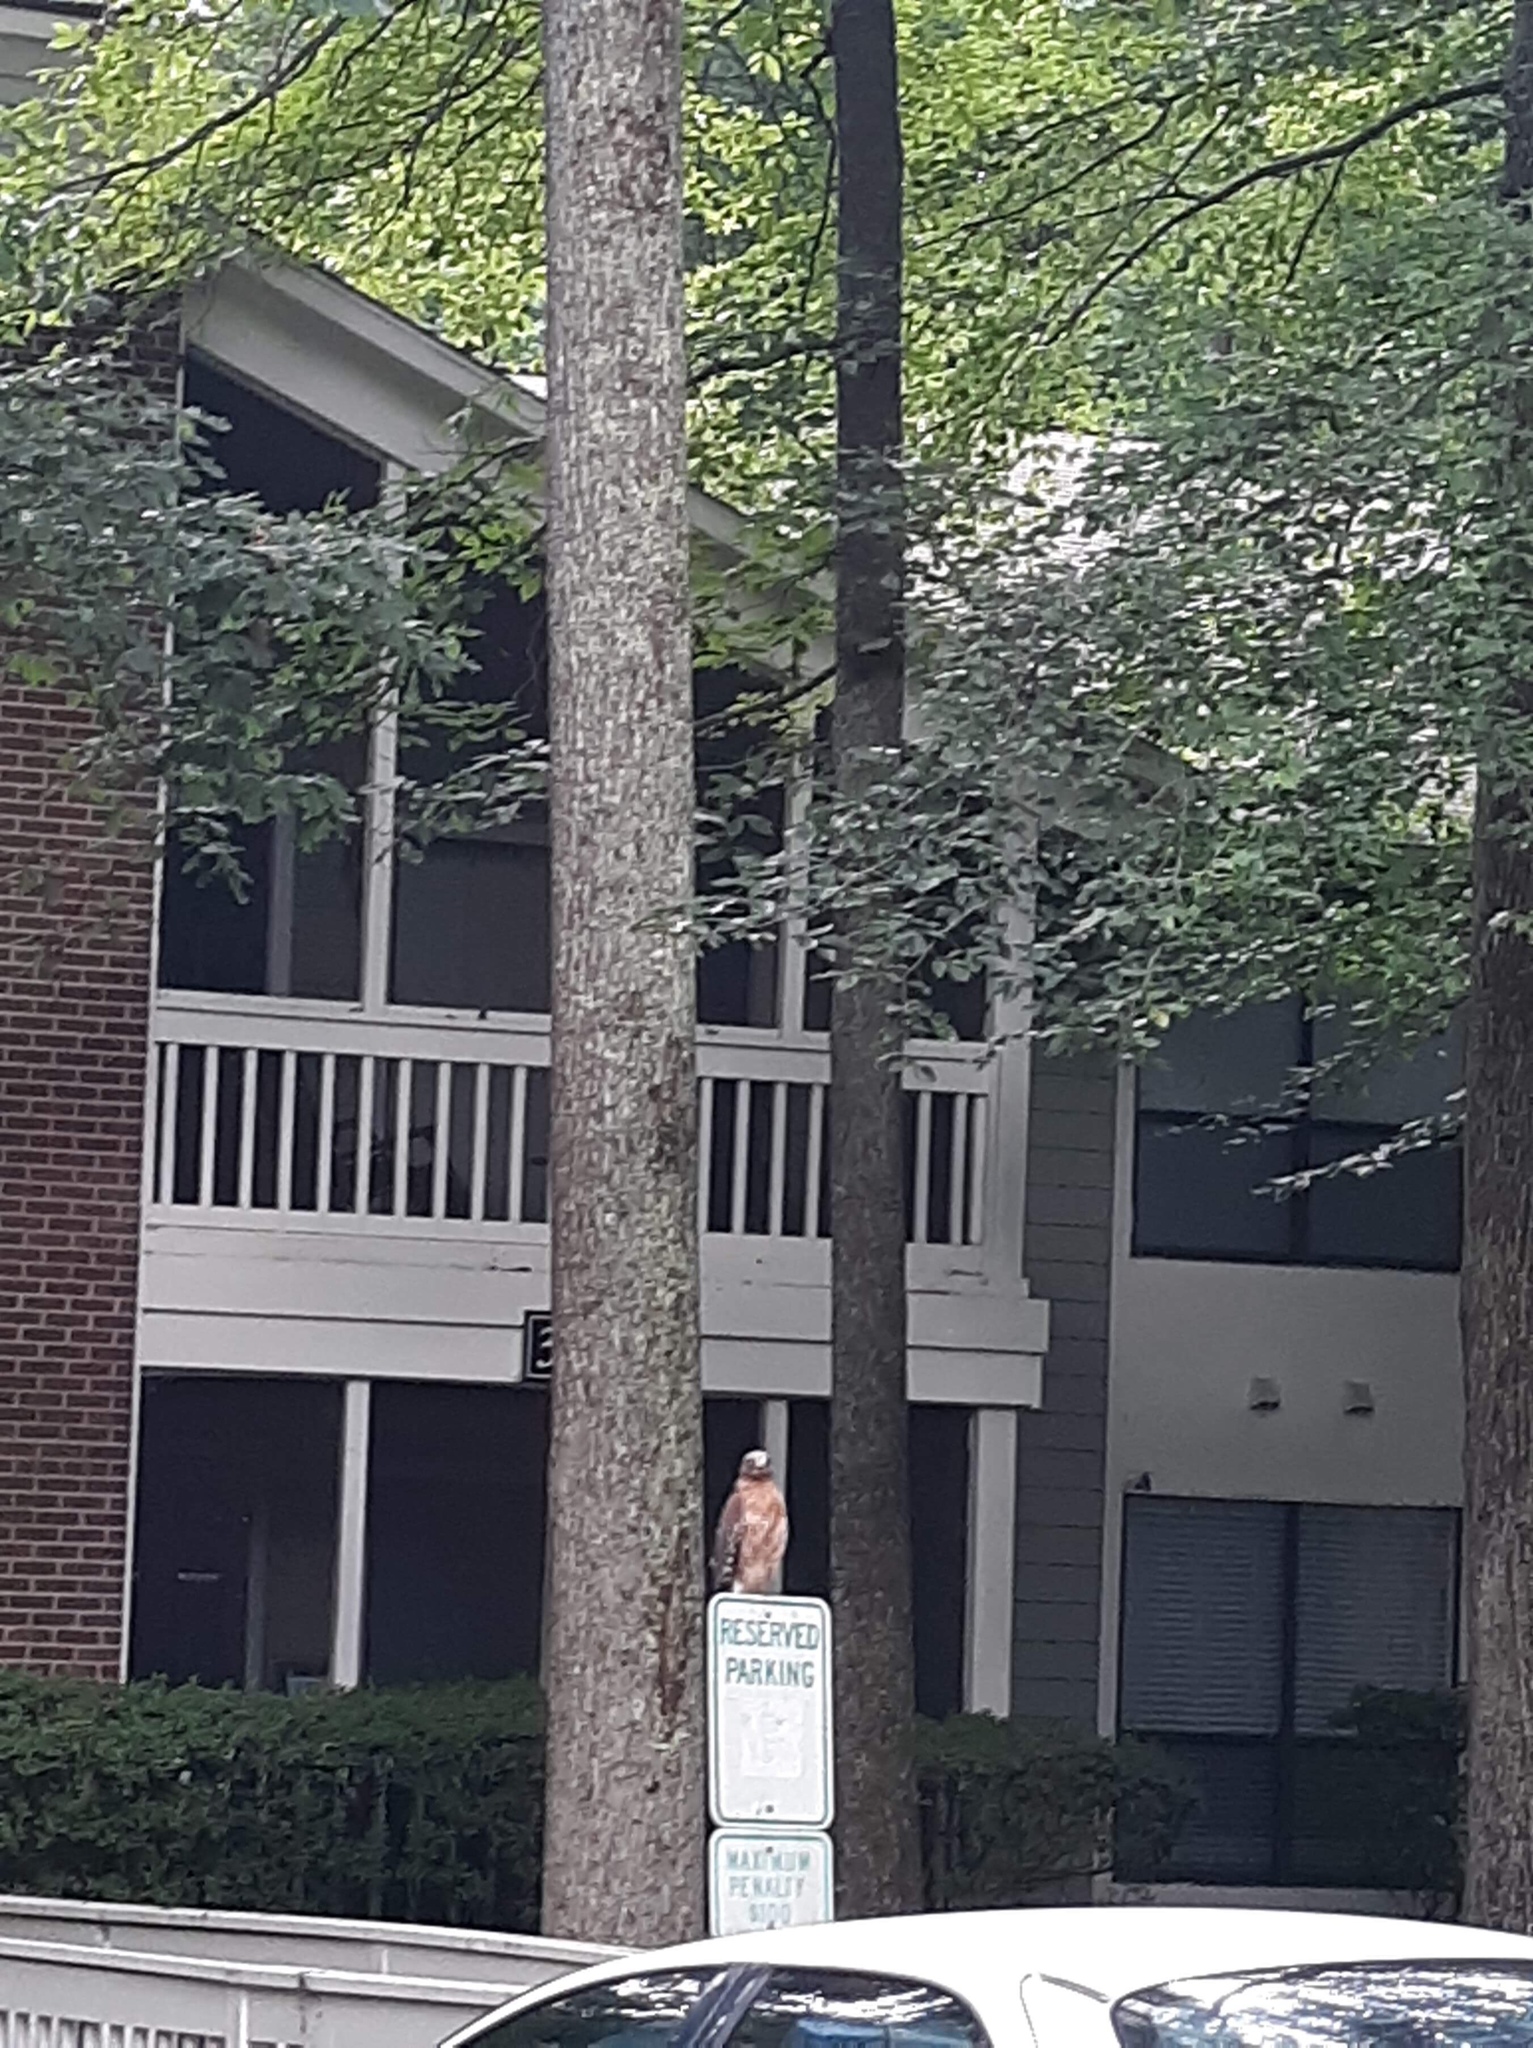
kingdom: Animalia
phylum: Chordata
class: Aves
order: Accipitriformes
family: Accipitridae
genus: Buteo
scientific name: Buteo lineatus
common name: Red-shouldered hawk
